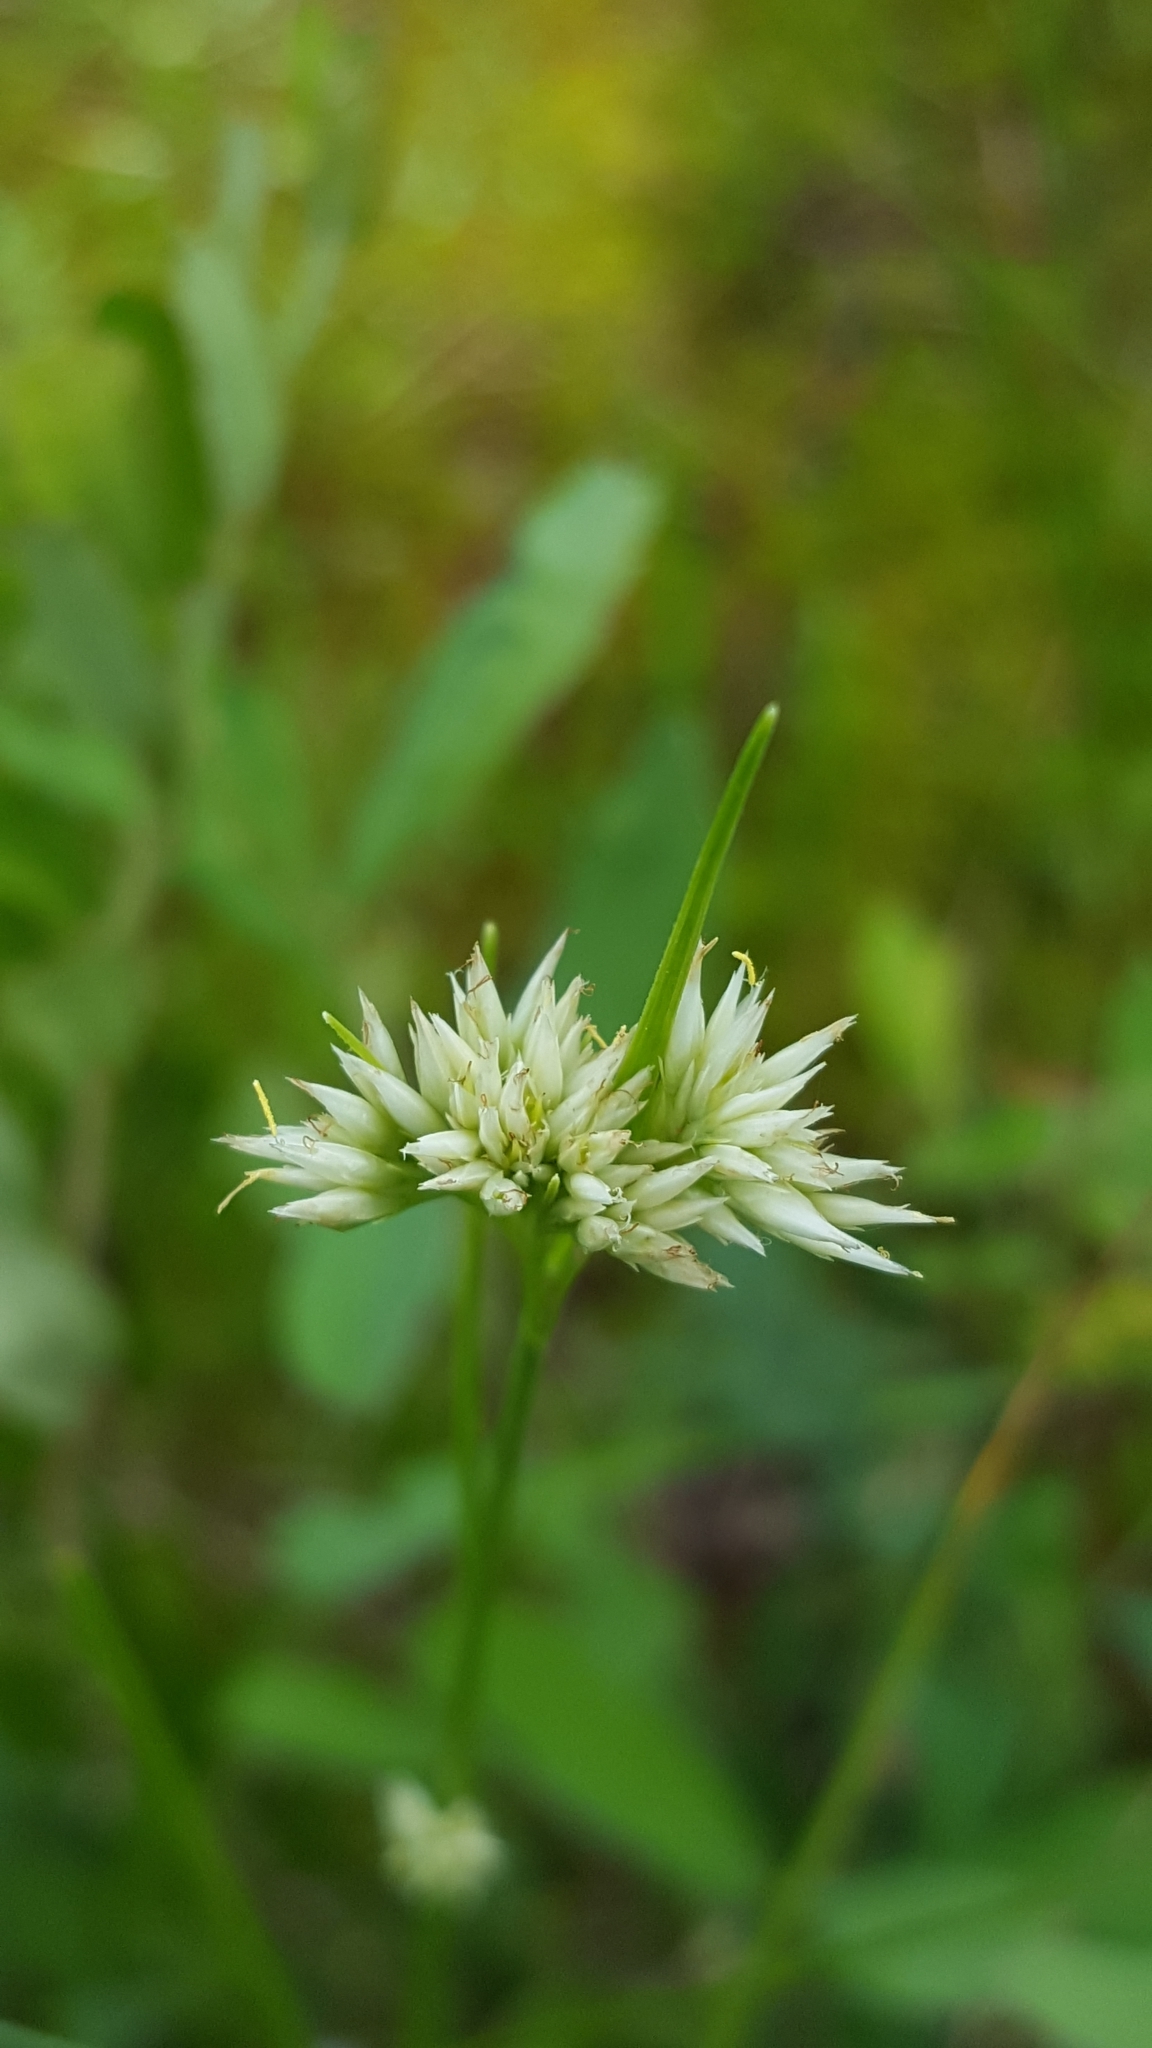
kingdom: Plantae
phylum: Tracheophyta
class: Liliopsida
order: Poales
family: Cyperaceae
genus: Rhynchospora
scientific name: Rhynchospora alba
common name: White beak-sedge
